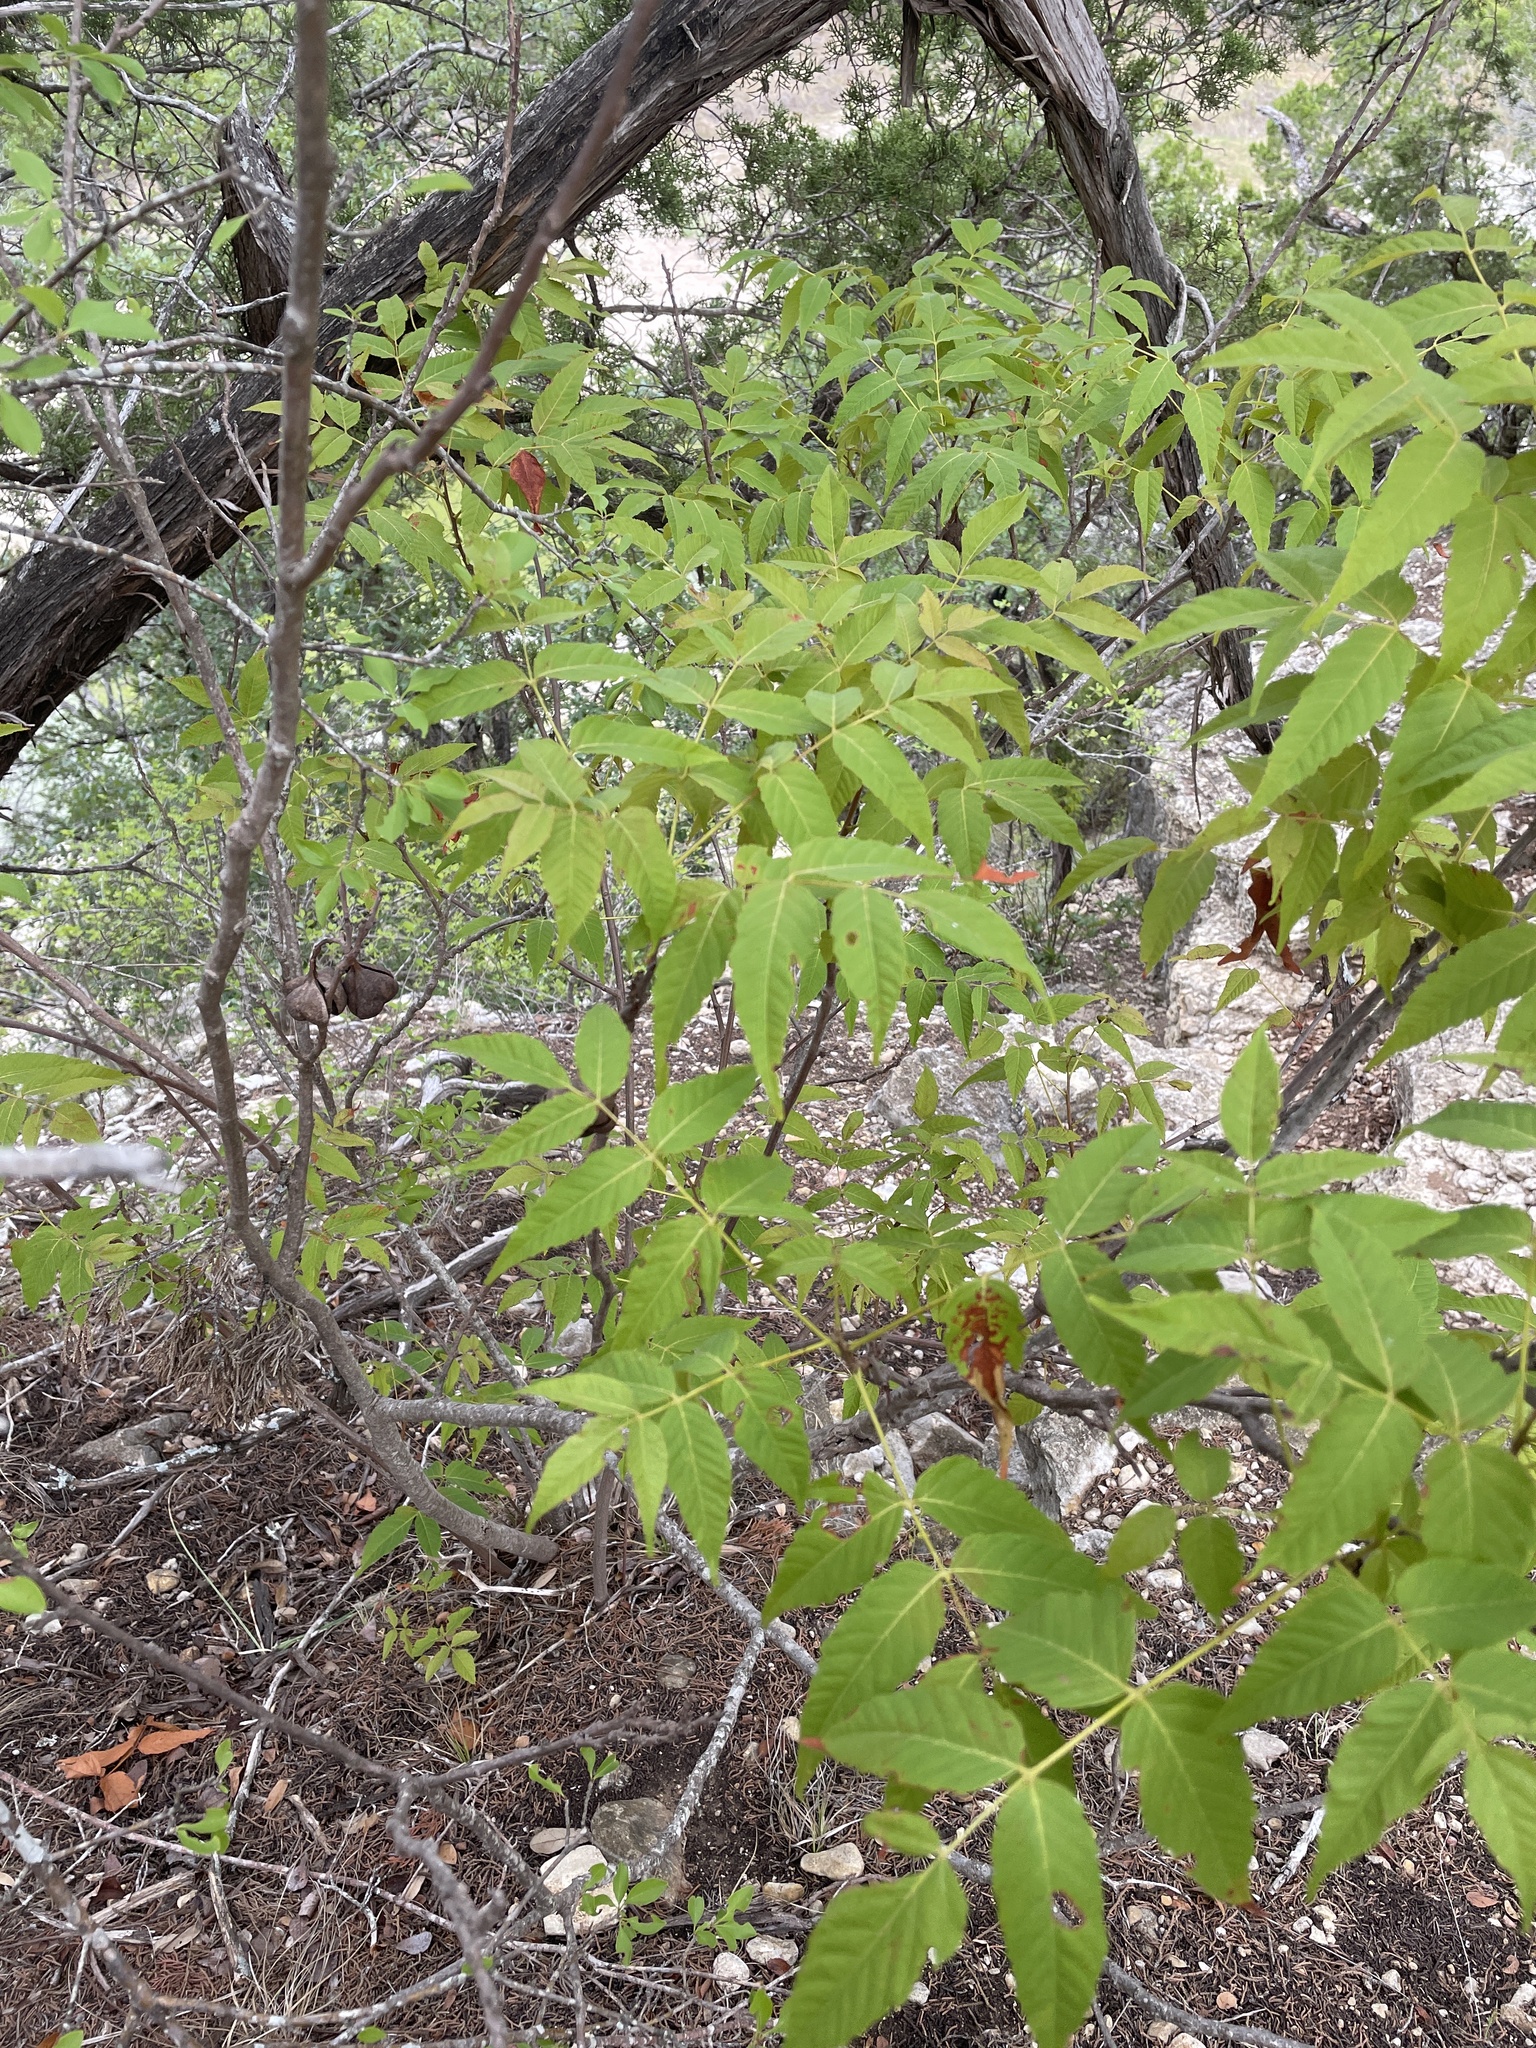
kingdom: Plantae
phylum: Tracheophyta
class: Magnoliopsida
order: Sapindales
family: Sapindaceae
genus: Ungnadia
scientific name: Ungnadia speciosa
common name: Texas-buckeye
